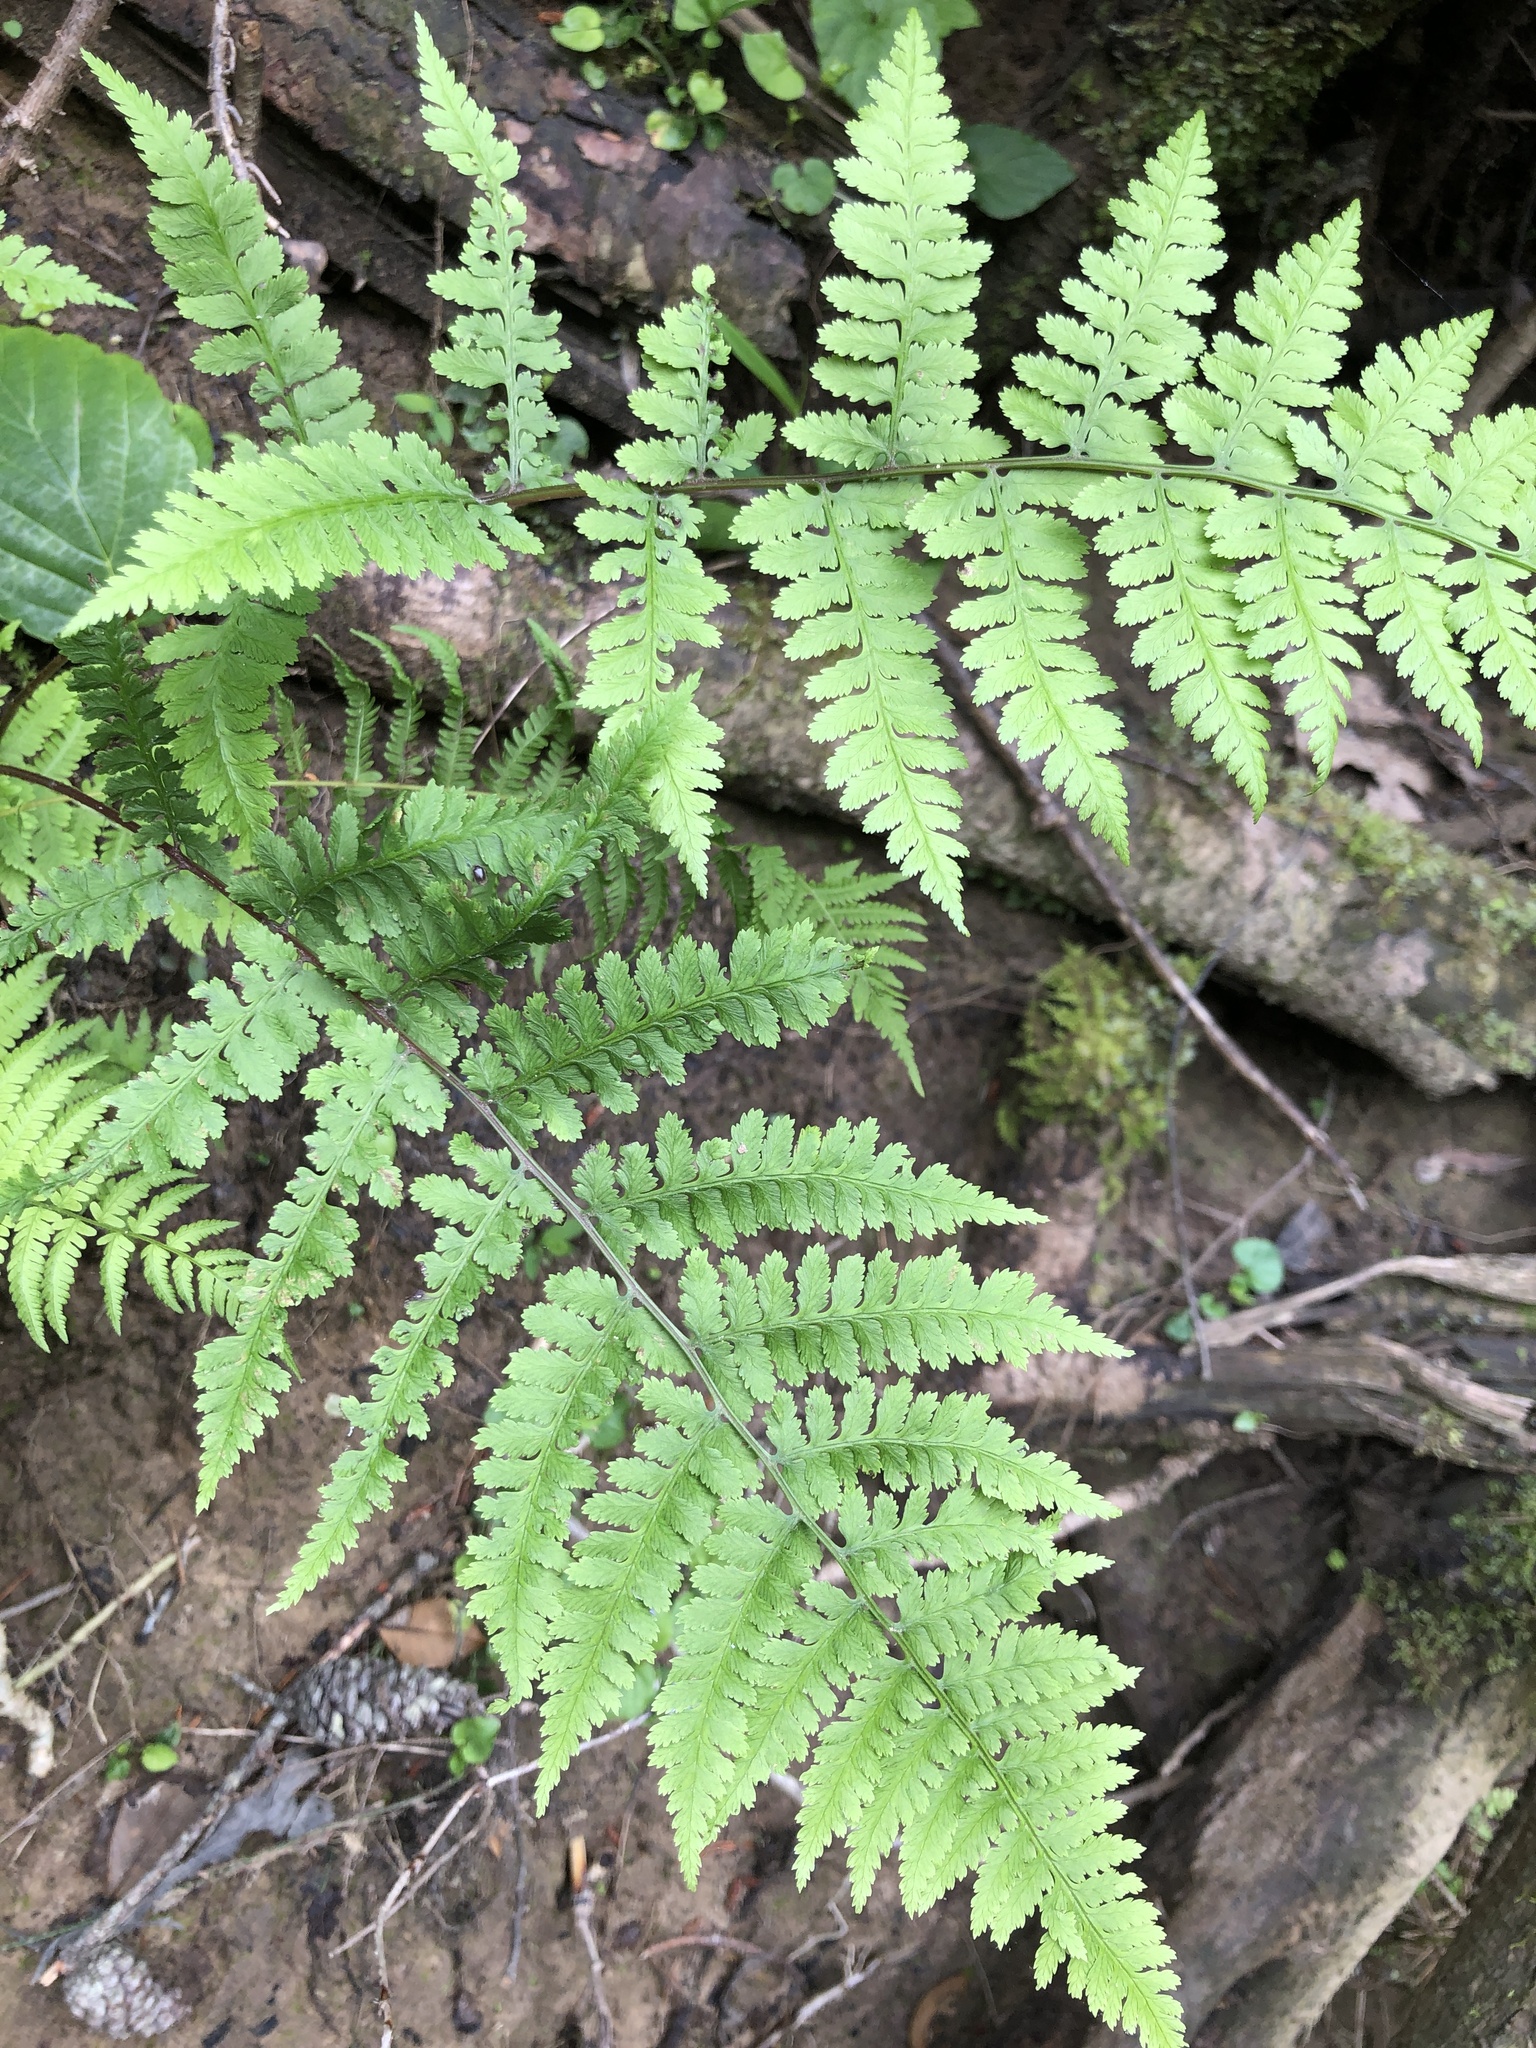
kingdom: Plantae
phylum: Tracheophyta
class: Polypodiopsida
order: Polypodiales
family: Athyriaceae
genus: Athyrium
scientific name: Athyrium asplenioides
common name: Southern lady fern
